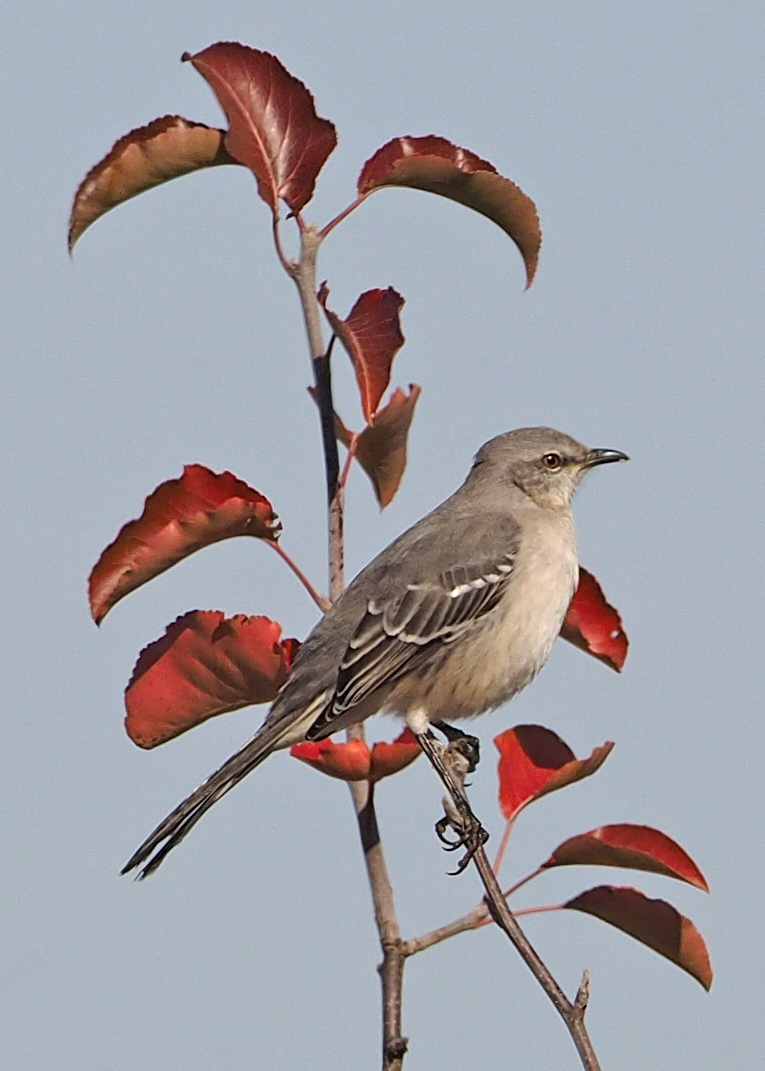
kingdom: Animalia
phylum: Chordata
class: Aves
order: Passeriformes
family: Mimidae
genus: Mimus
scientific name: Mimus polyglottos
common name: Northern mockingbird
